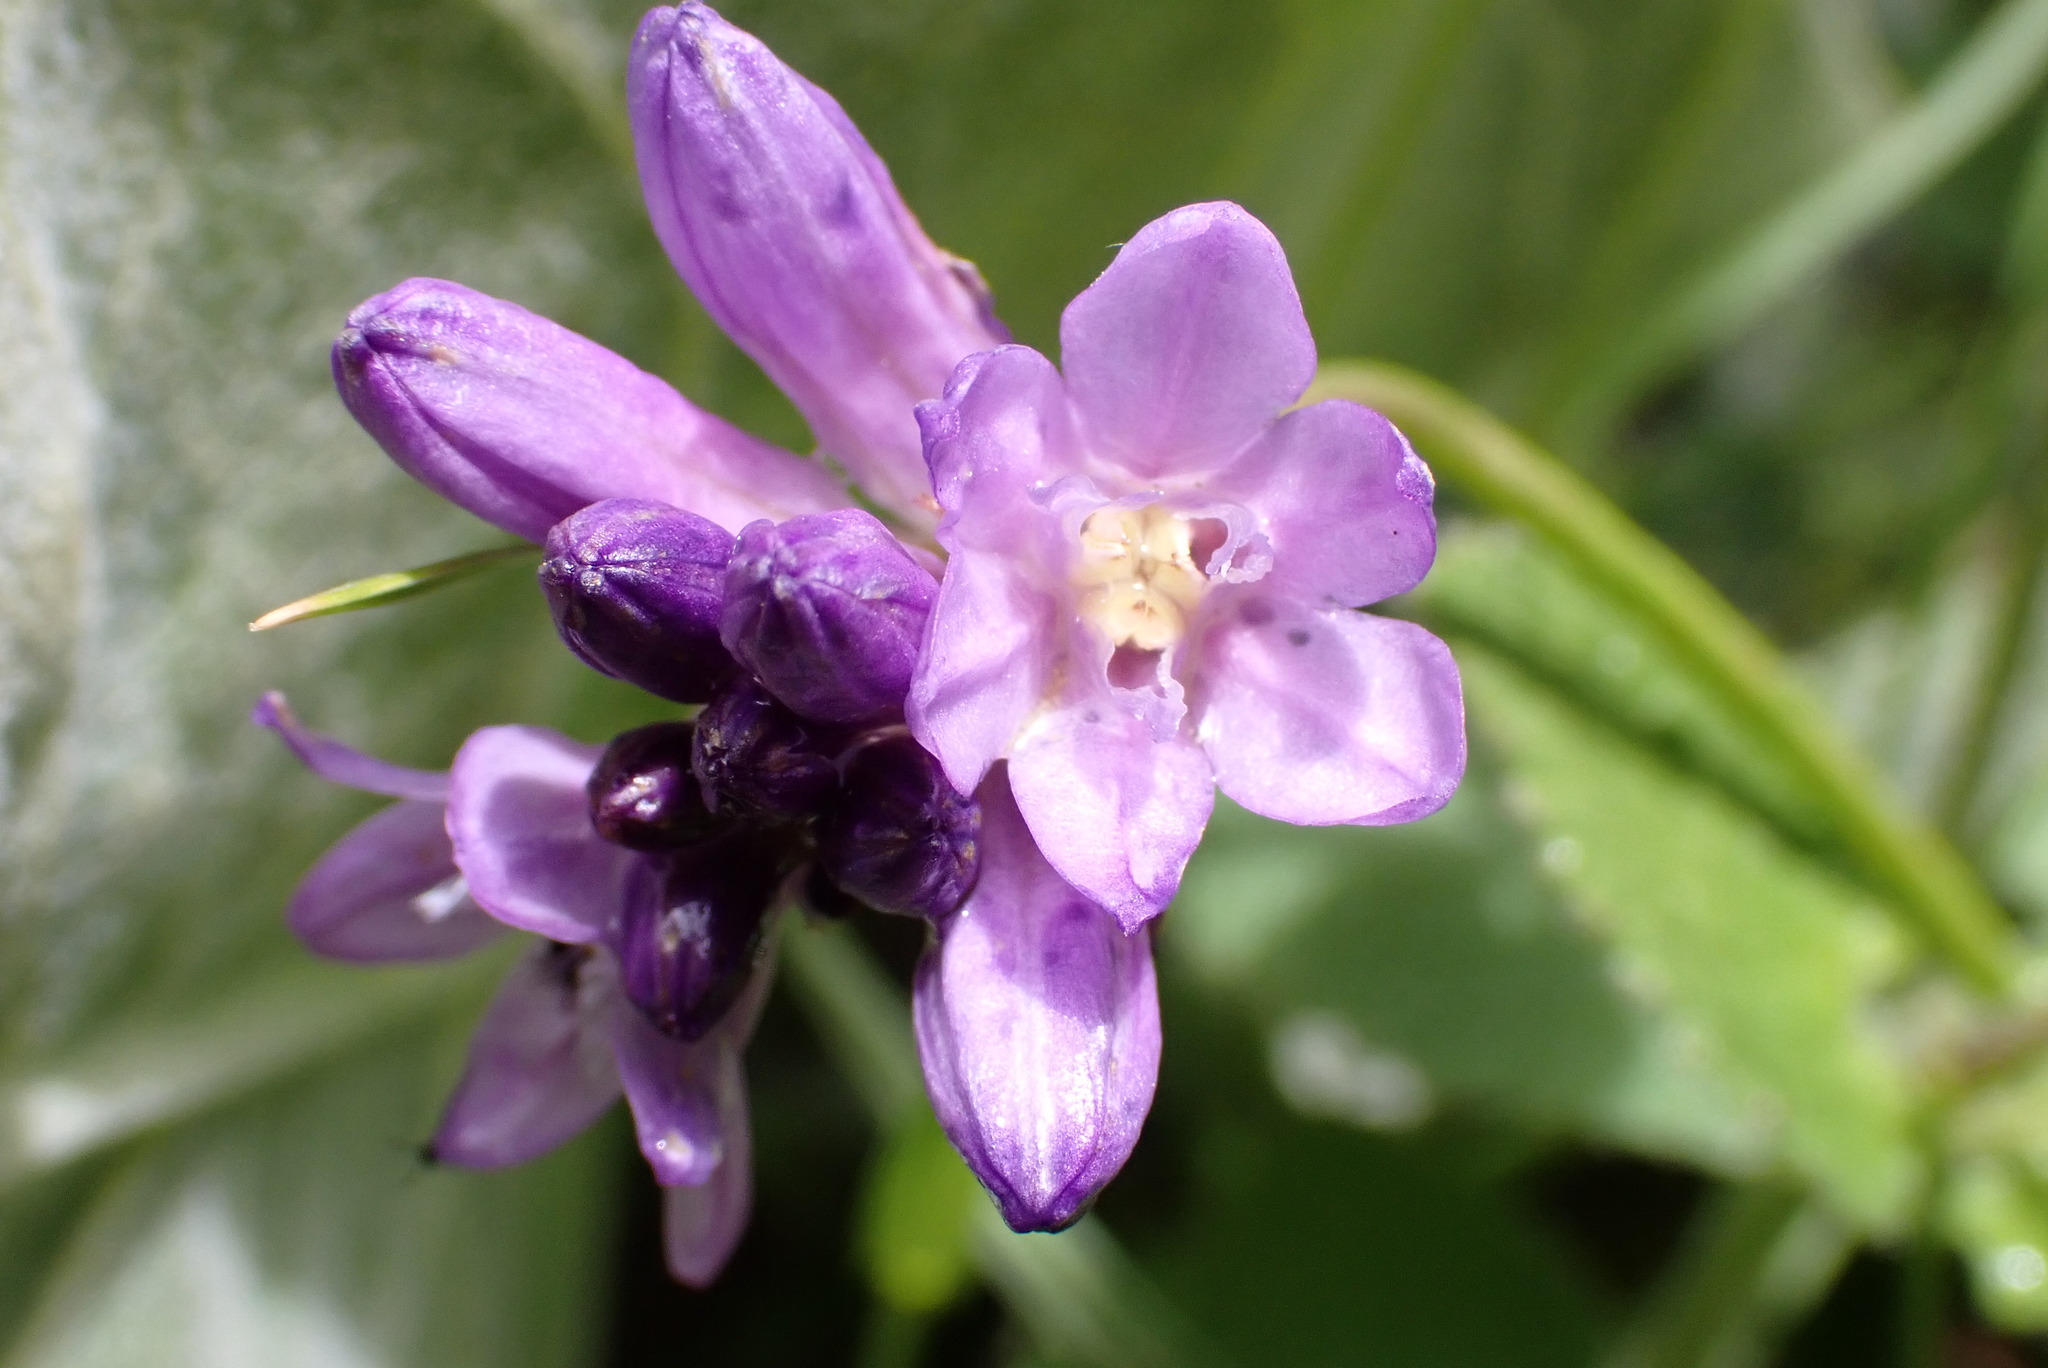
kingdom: Plantae
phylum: Tracheophyta
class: Liliopsida
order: Asparagales
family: Asparagaceae
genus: Dipterostemon
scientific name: Dipterostemon capitatus
